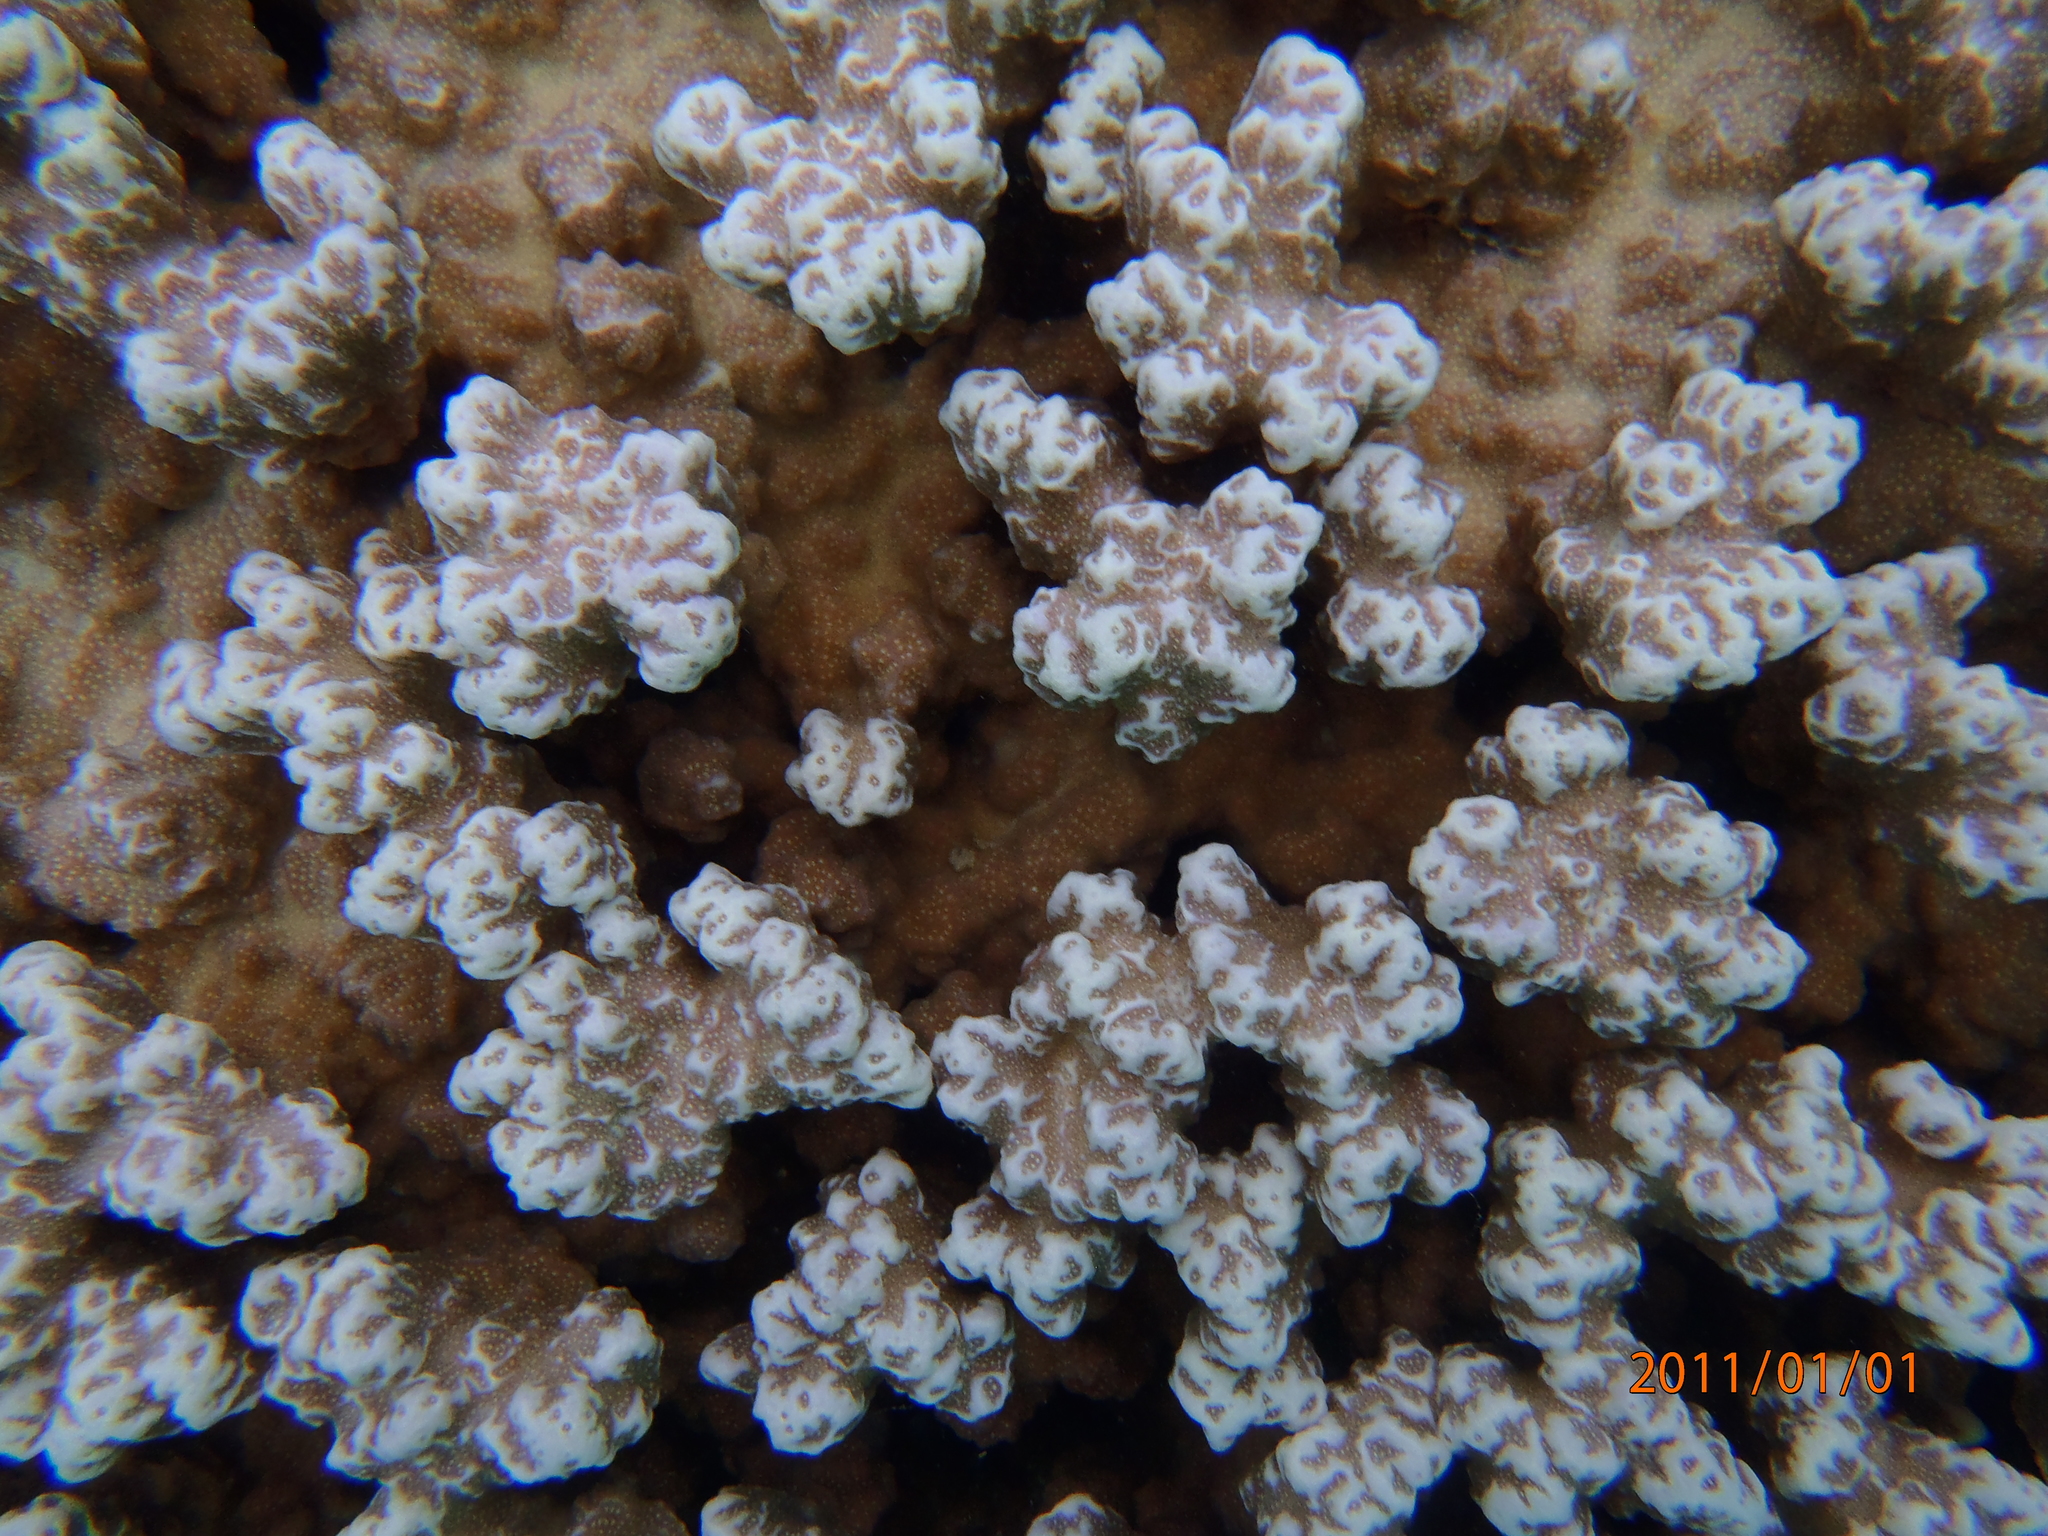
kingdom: Animalia
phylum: Cnidaria
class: Anthozoa
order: Scleractinia
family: Poritidae
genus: Porites
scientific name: Porites rus
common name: Hump coral
